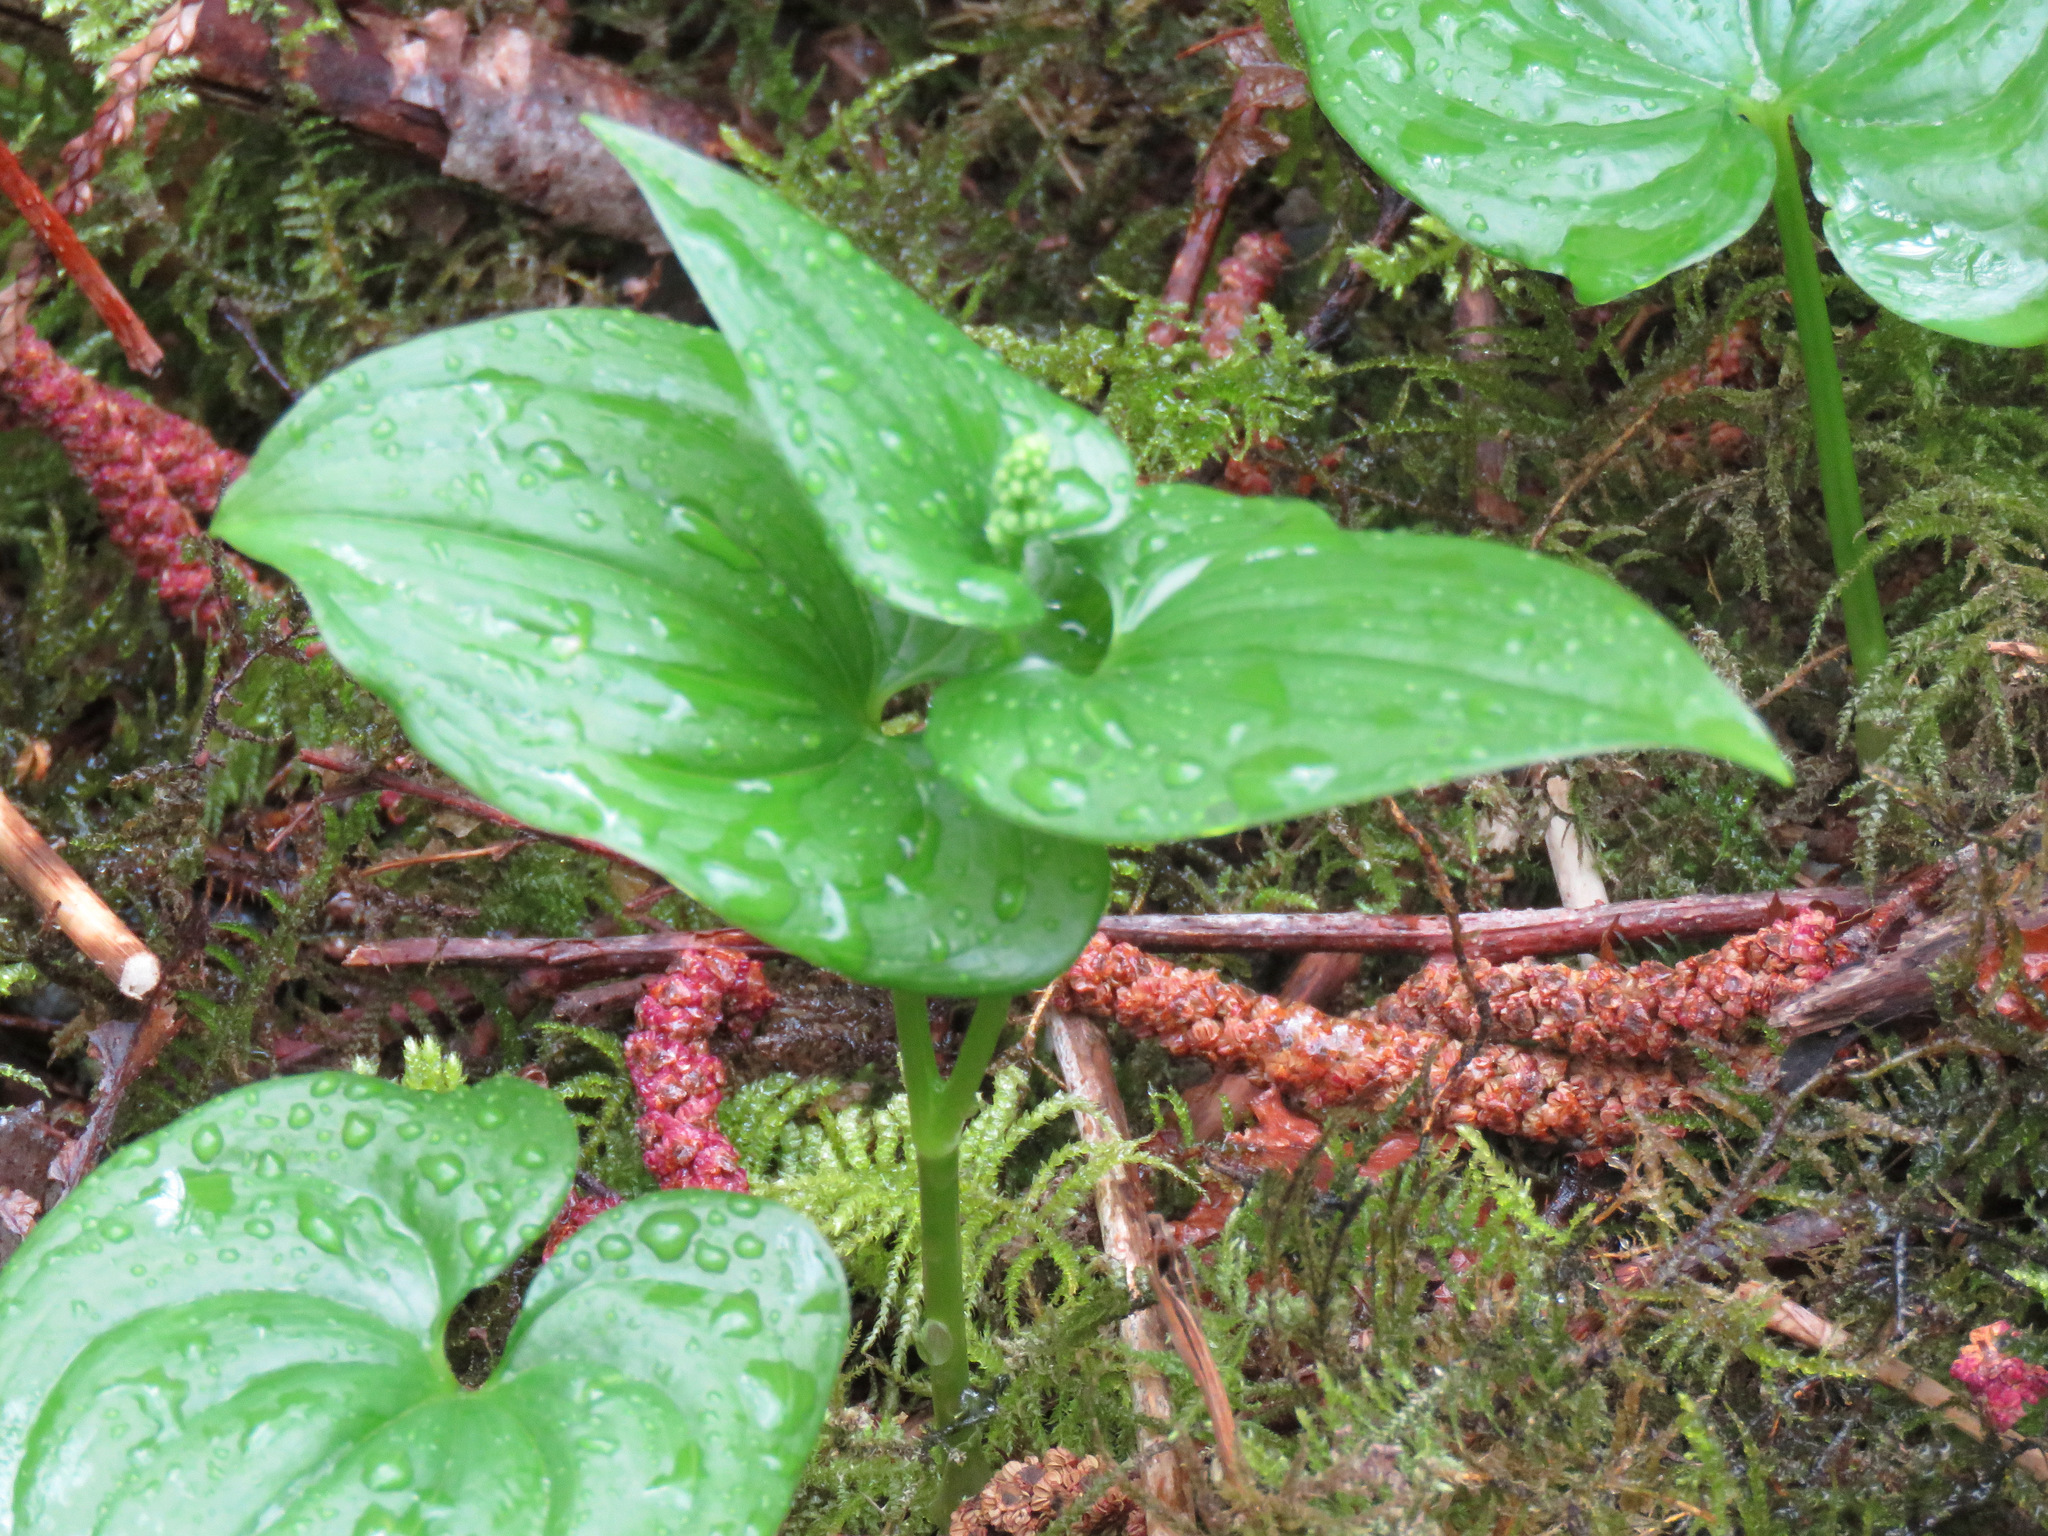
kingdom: Plantae
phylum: Tracheophyta
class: Liliopsida
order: Asparagales
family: Asparagaceae
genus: Maianthemum
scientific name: Maianthemum dilatatum
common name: False lily-of-the-valley
